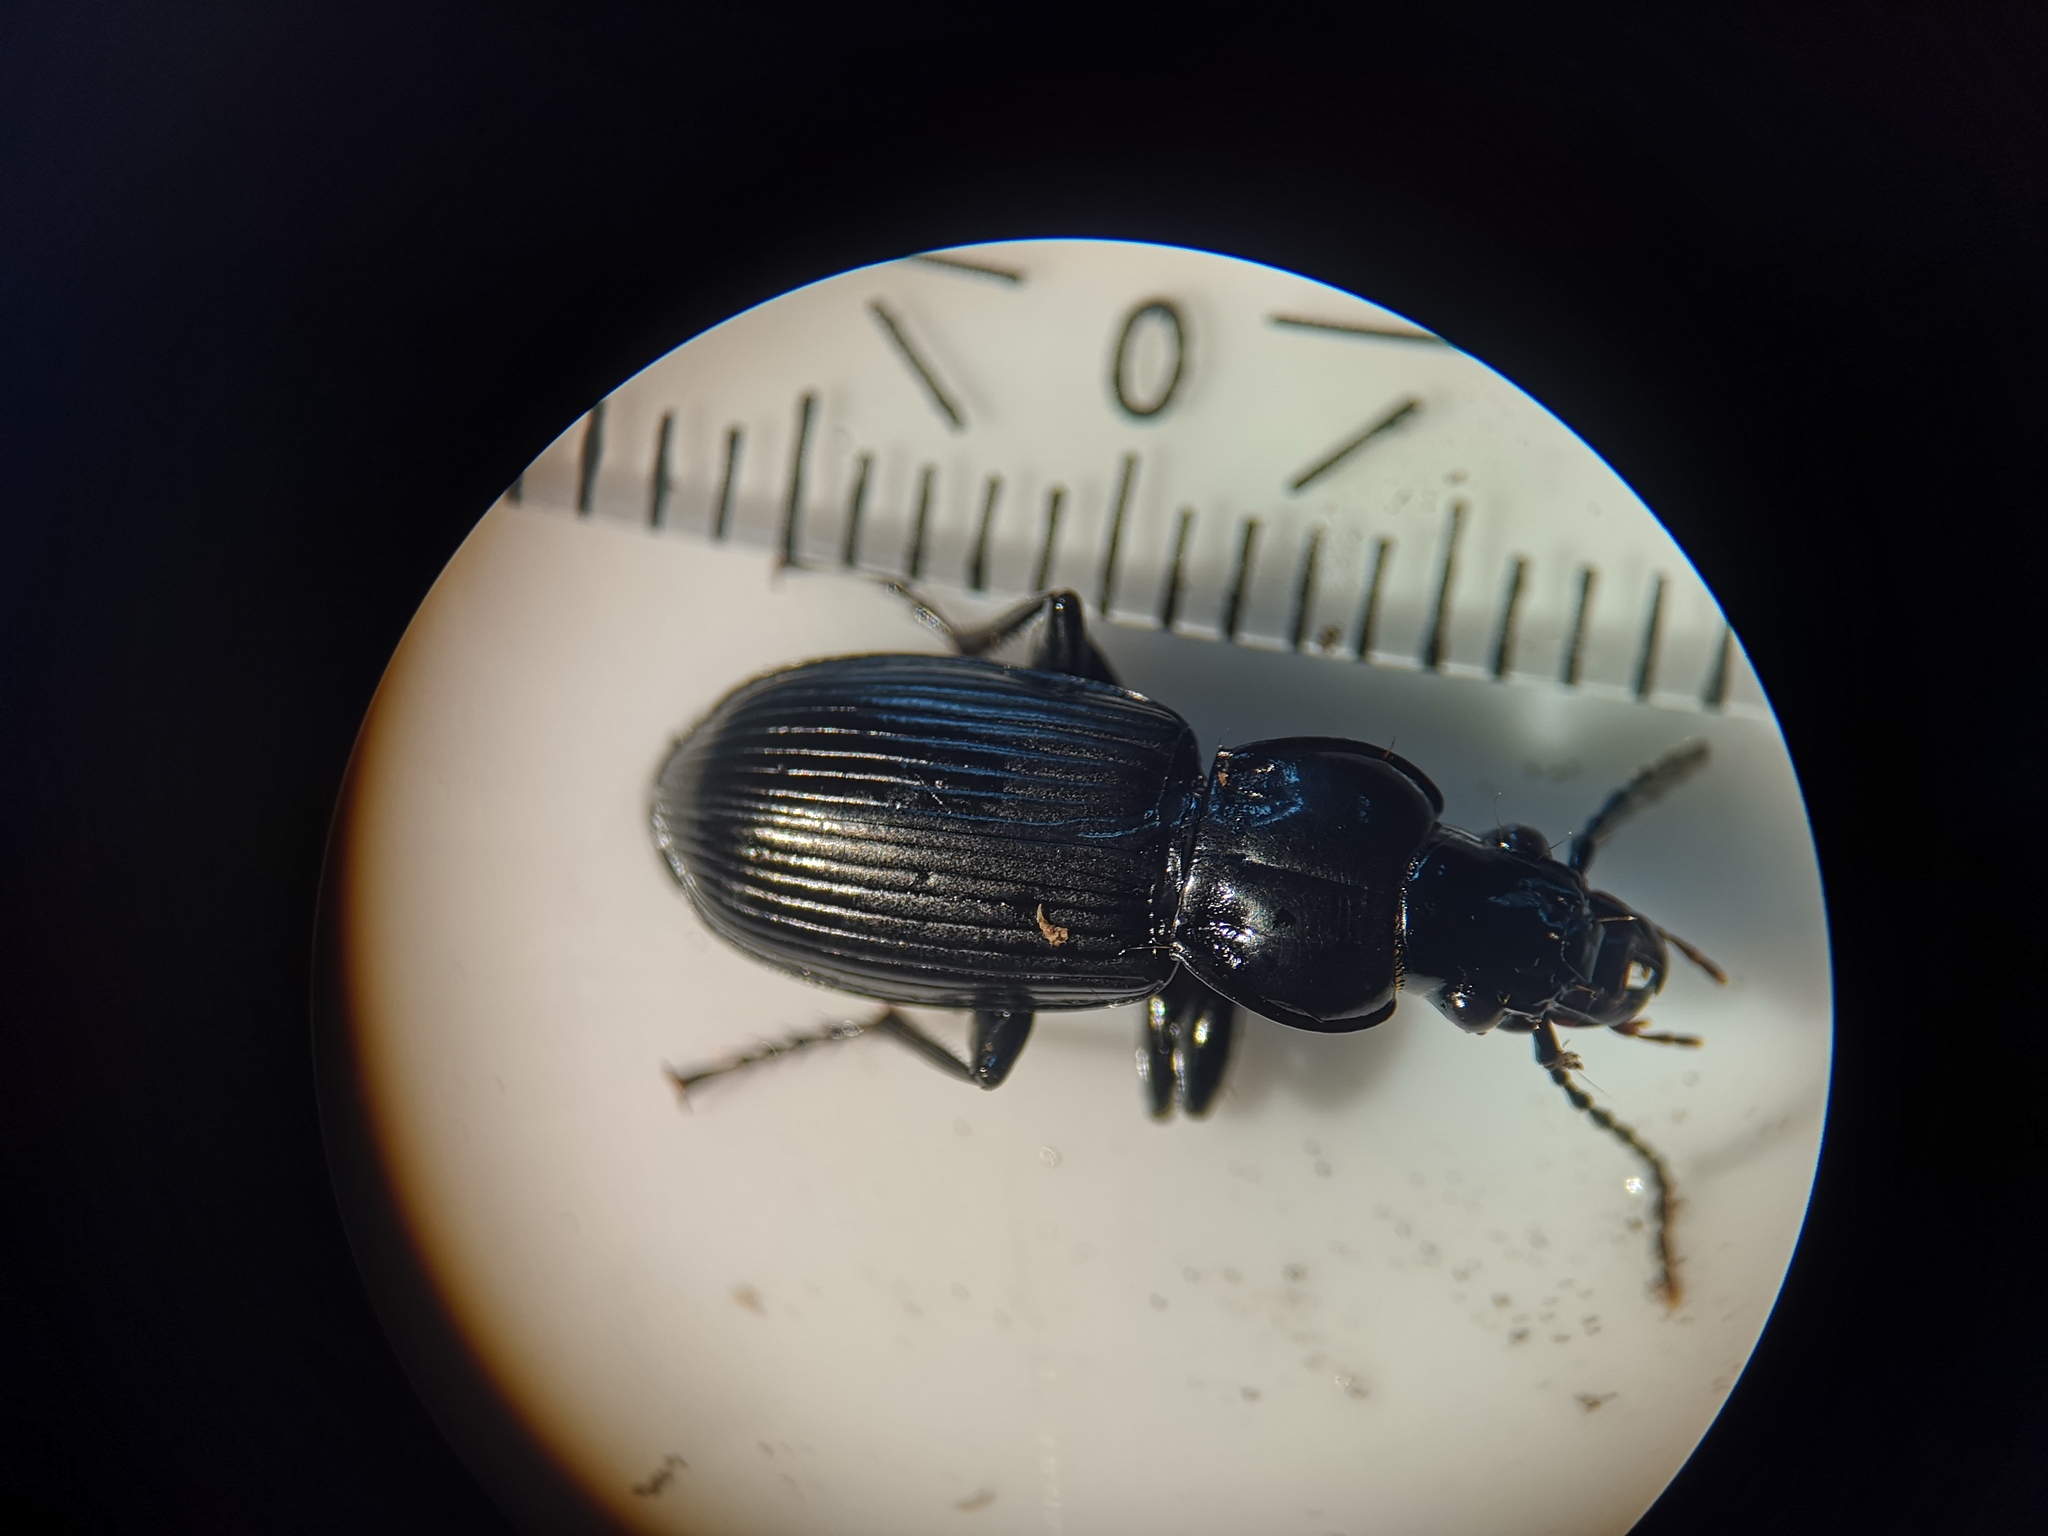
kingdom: Animalia
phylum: Arthropoda
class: Insecta
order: Coleoptera
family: Carabidae
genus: Pterostichus
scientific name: Pterostichus nigrita
